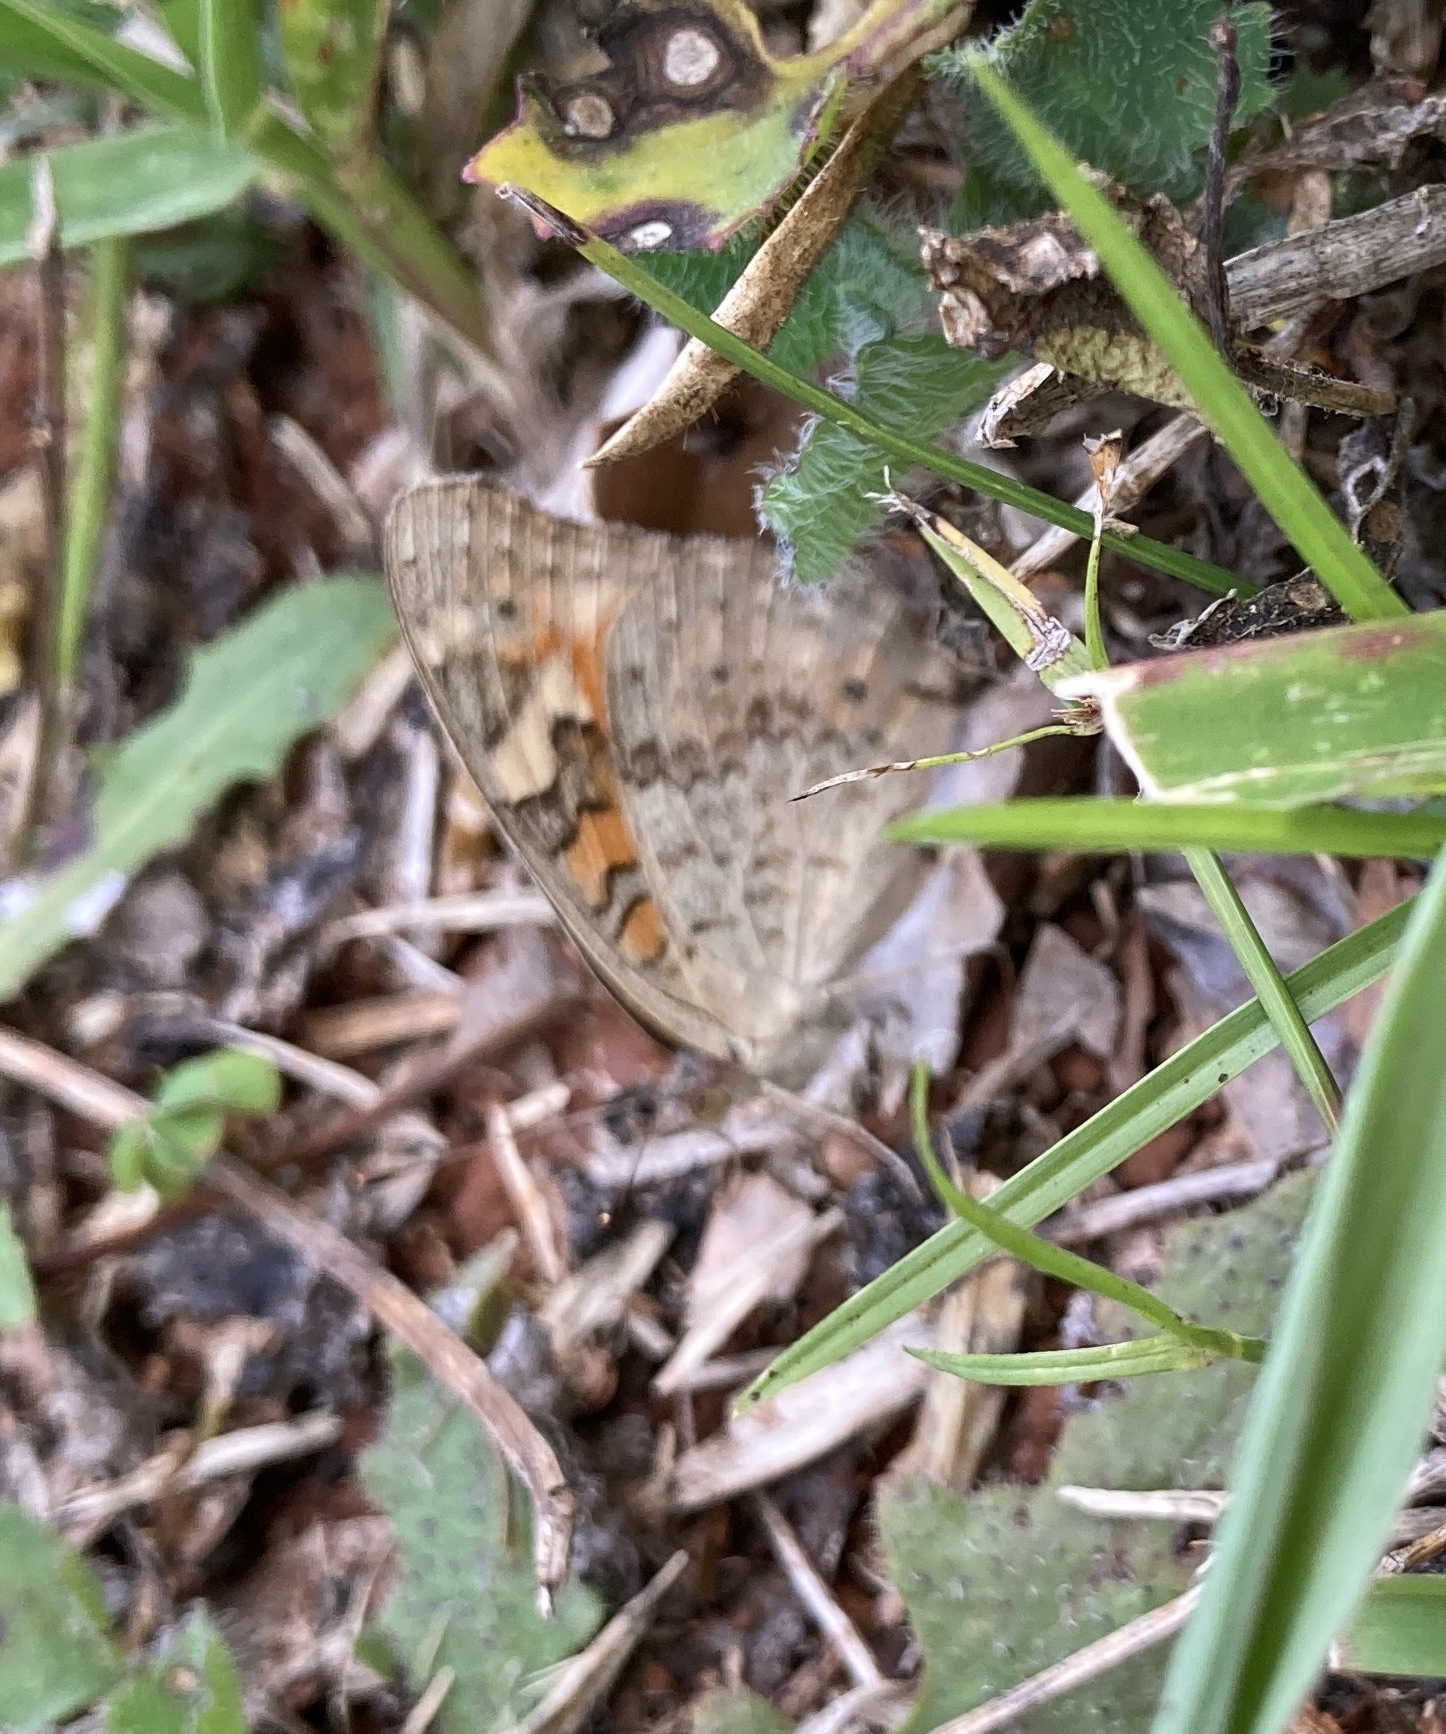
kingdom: Animalia
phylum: Arthropoda
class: Insecta
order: Lepidoptera
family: Nymphalidae
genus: Junonia
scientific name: Junonia villida
